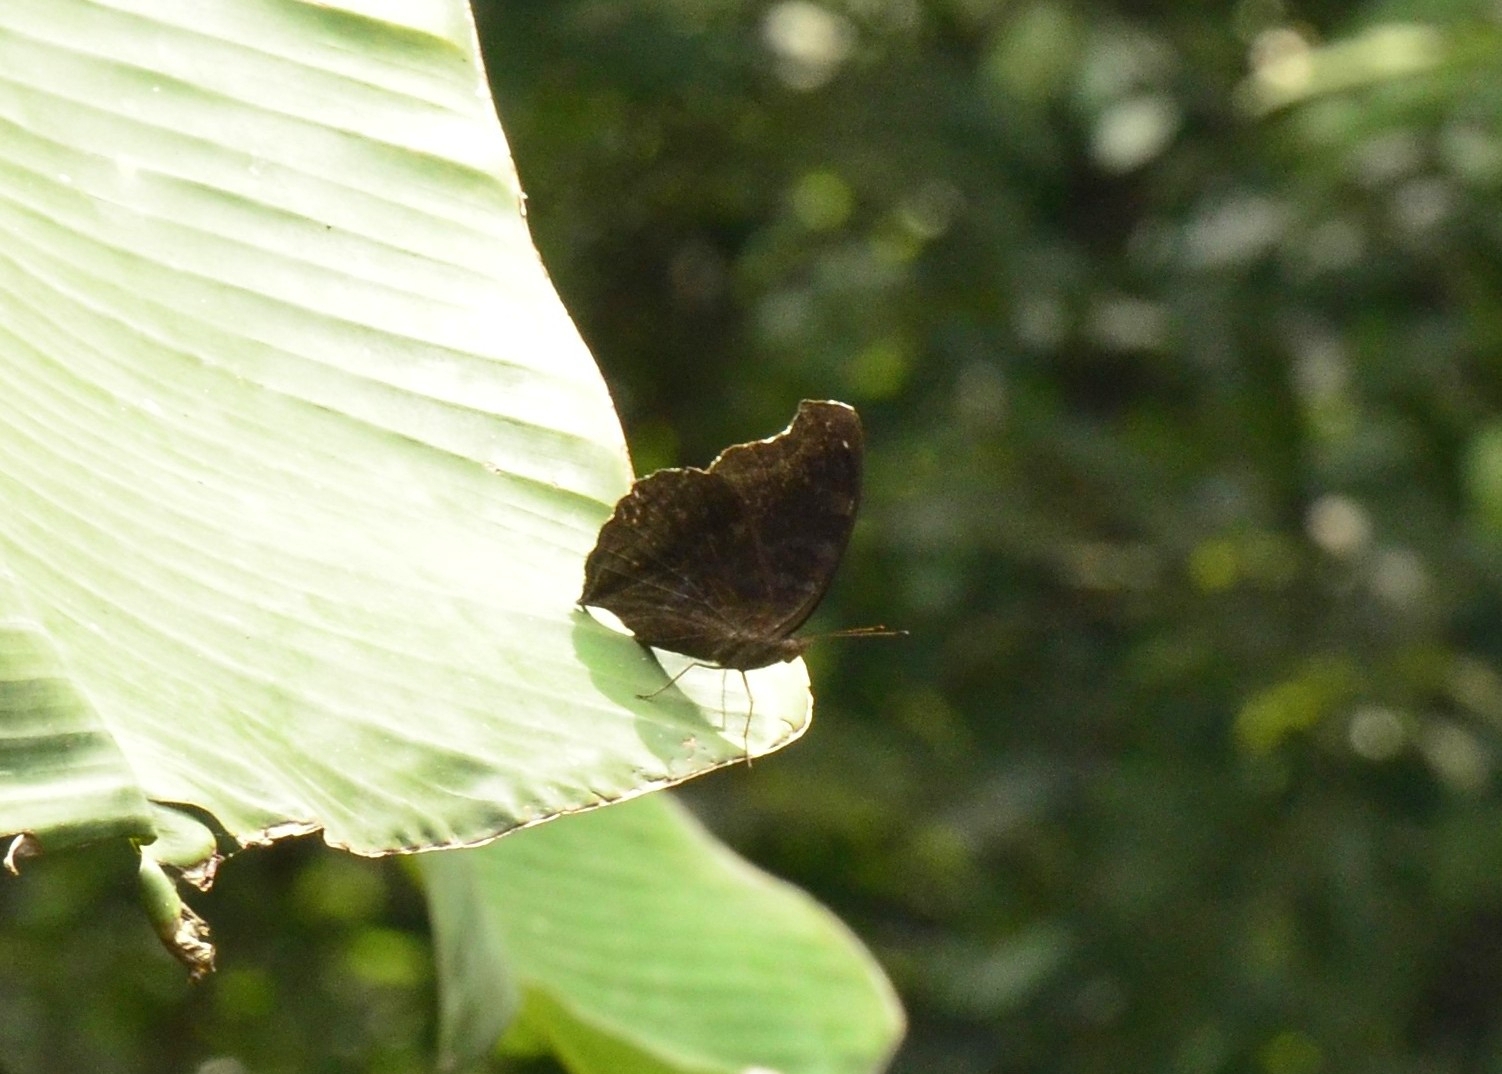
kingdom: Animalia
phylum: Arthropoda
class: Insecta
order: Lepidoptera
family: Nymphalidae
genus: Junonia
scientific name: Junonia iphita
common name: Chocolate pansy
